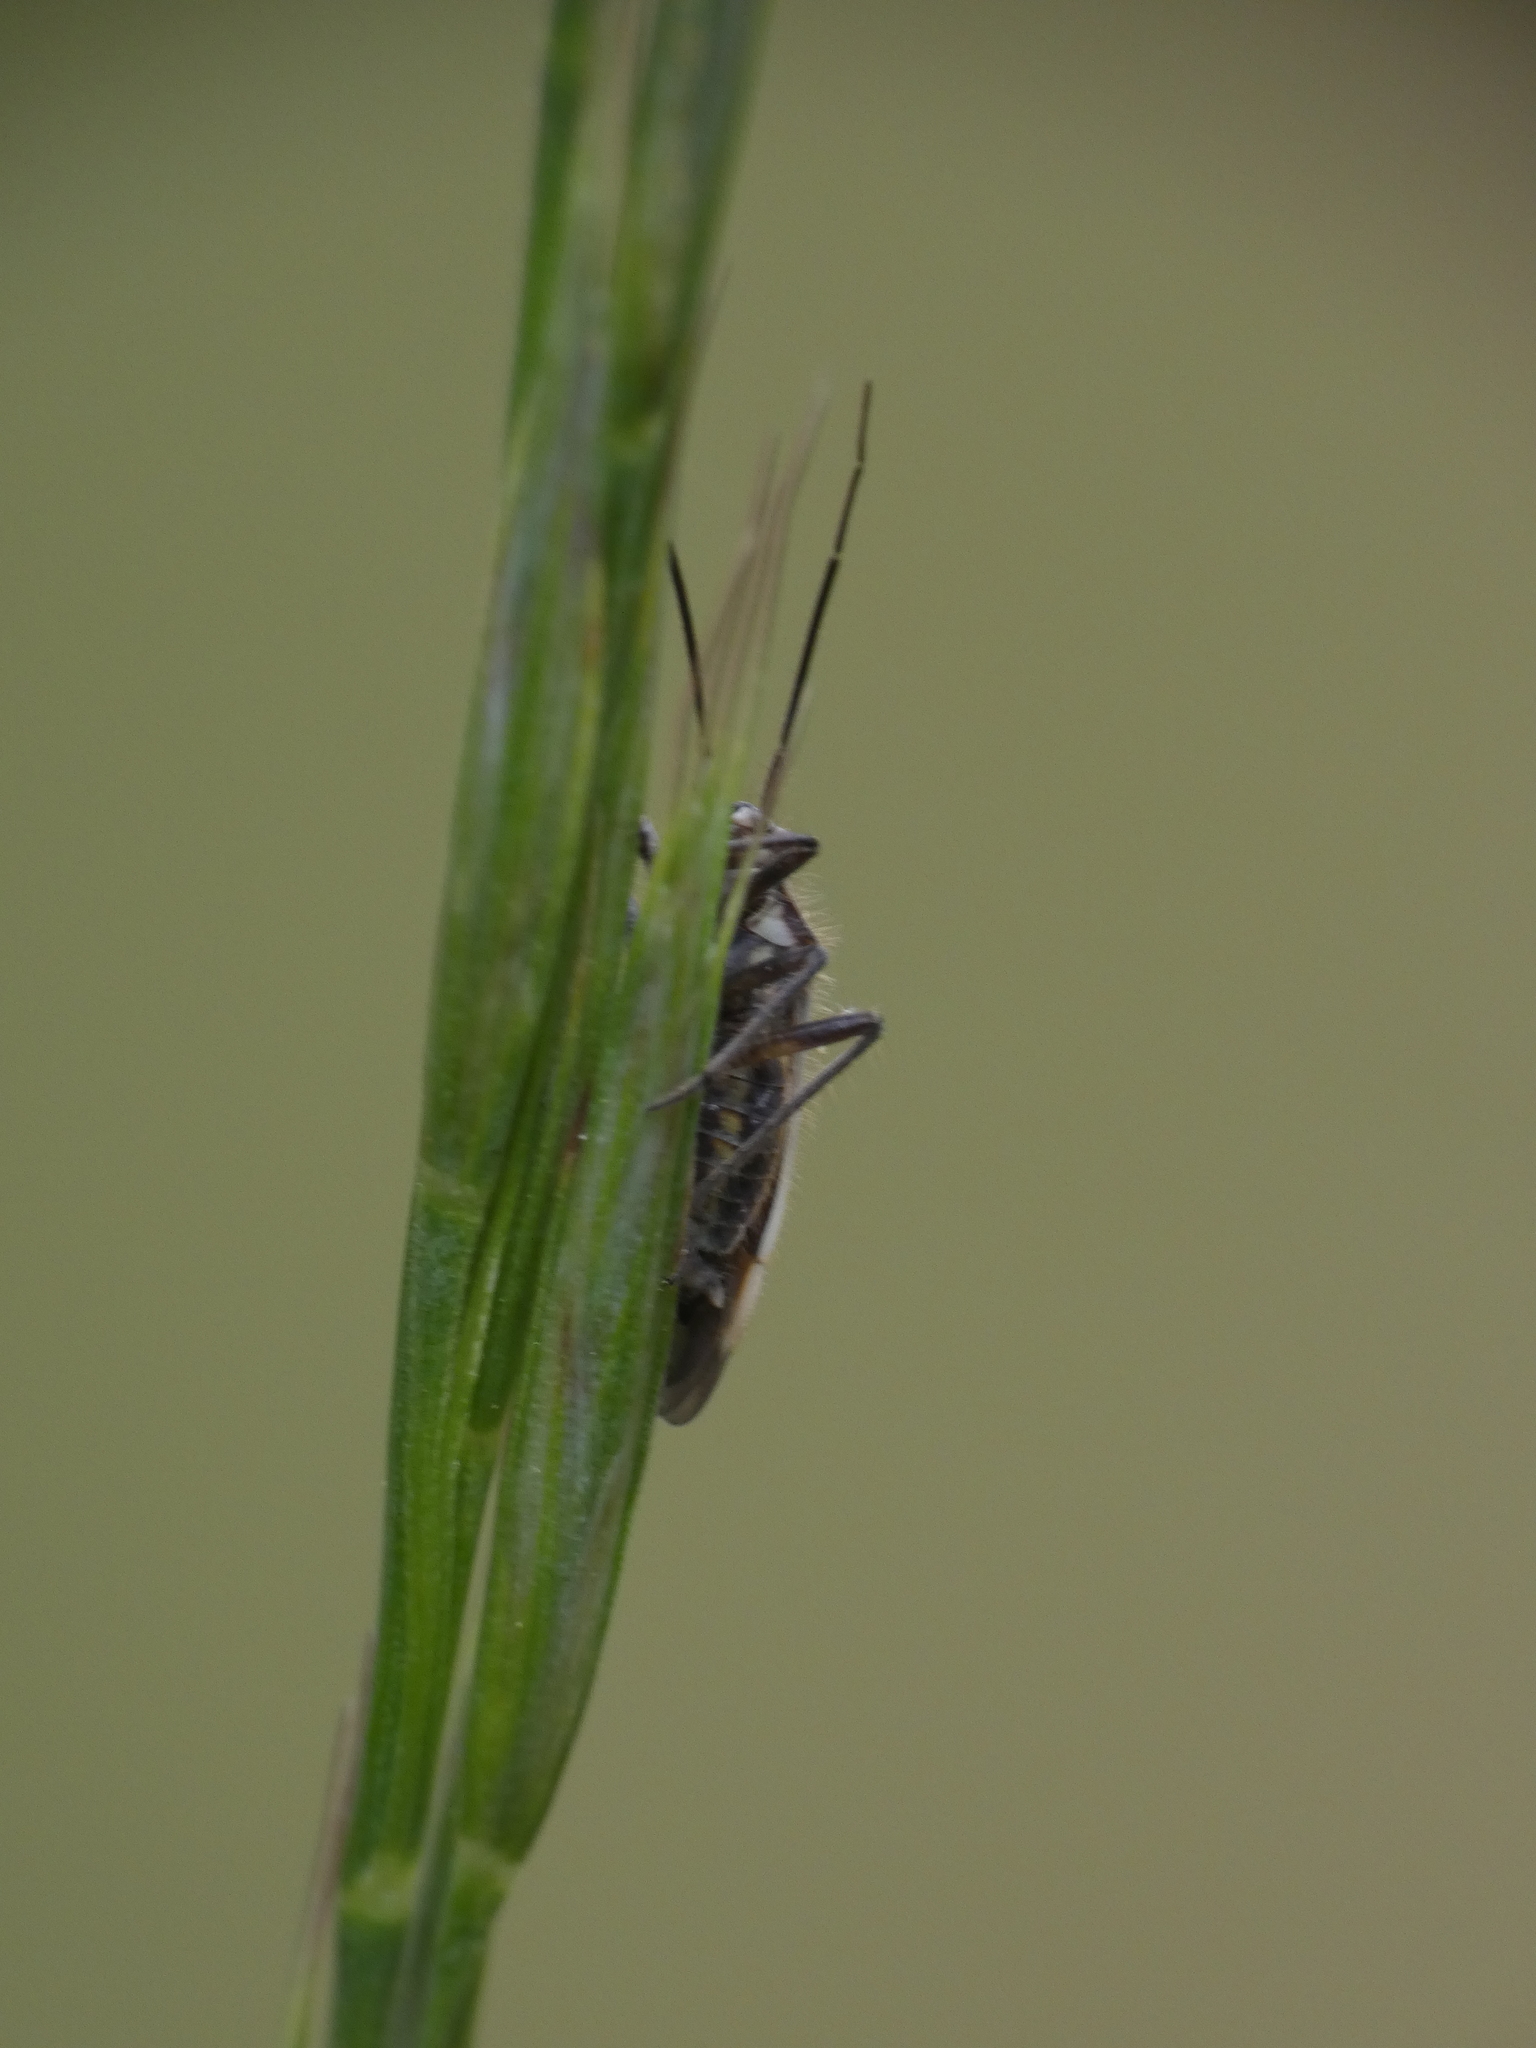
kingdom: Animalia
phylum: Arthropoda
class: Insecta
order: Hemiptera
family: Miridae
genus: Horistus
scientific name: Horistus orientalis
